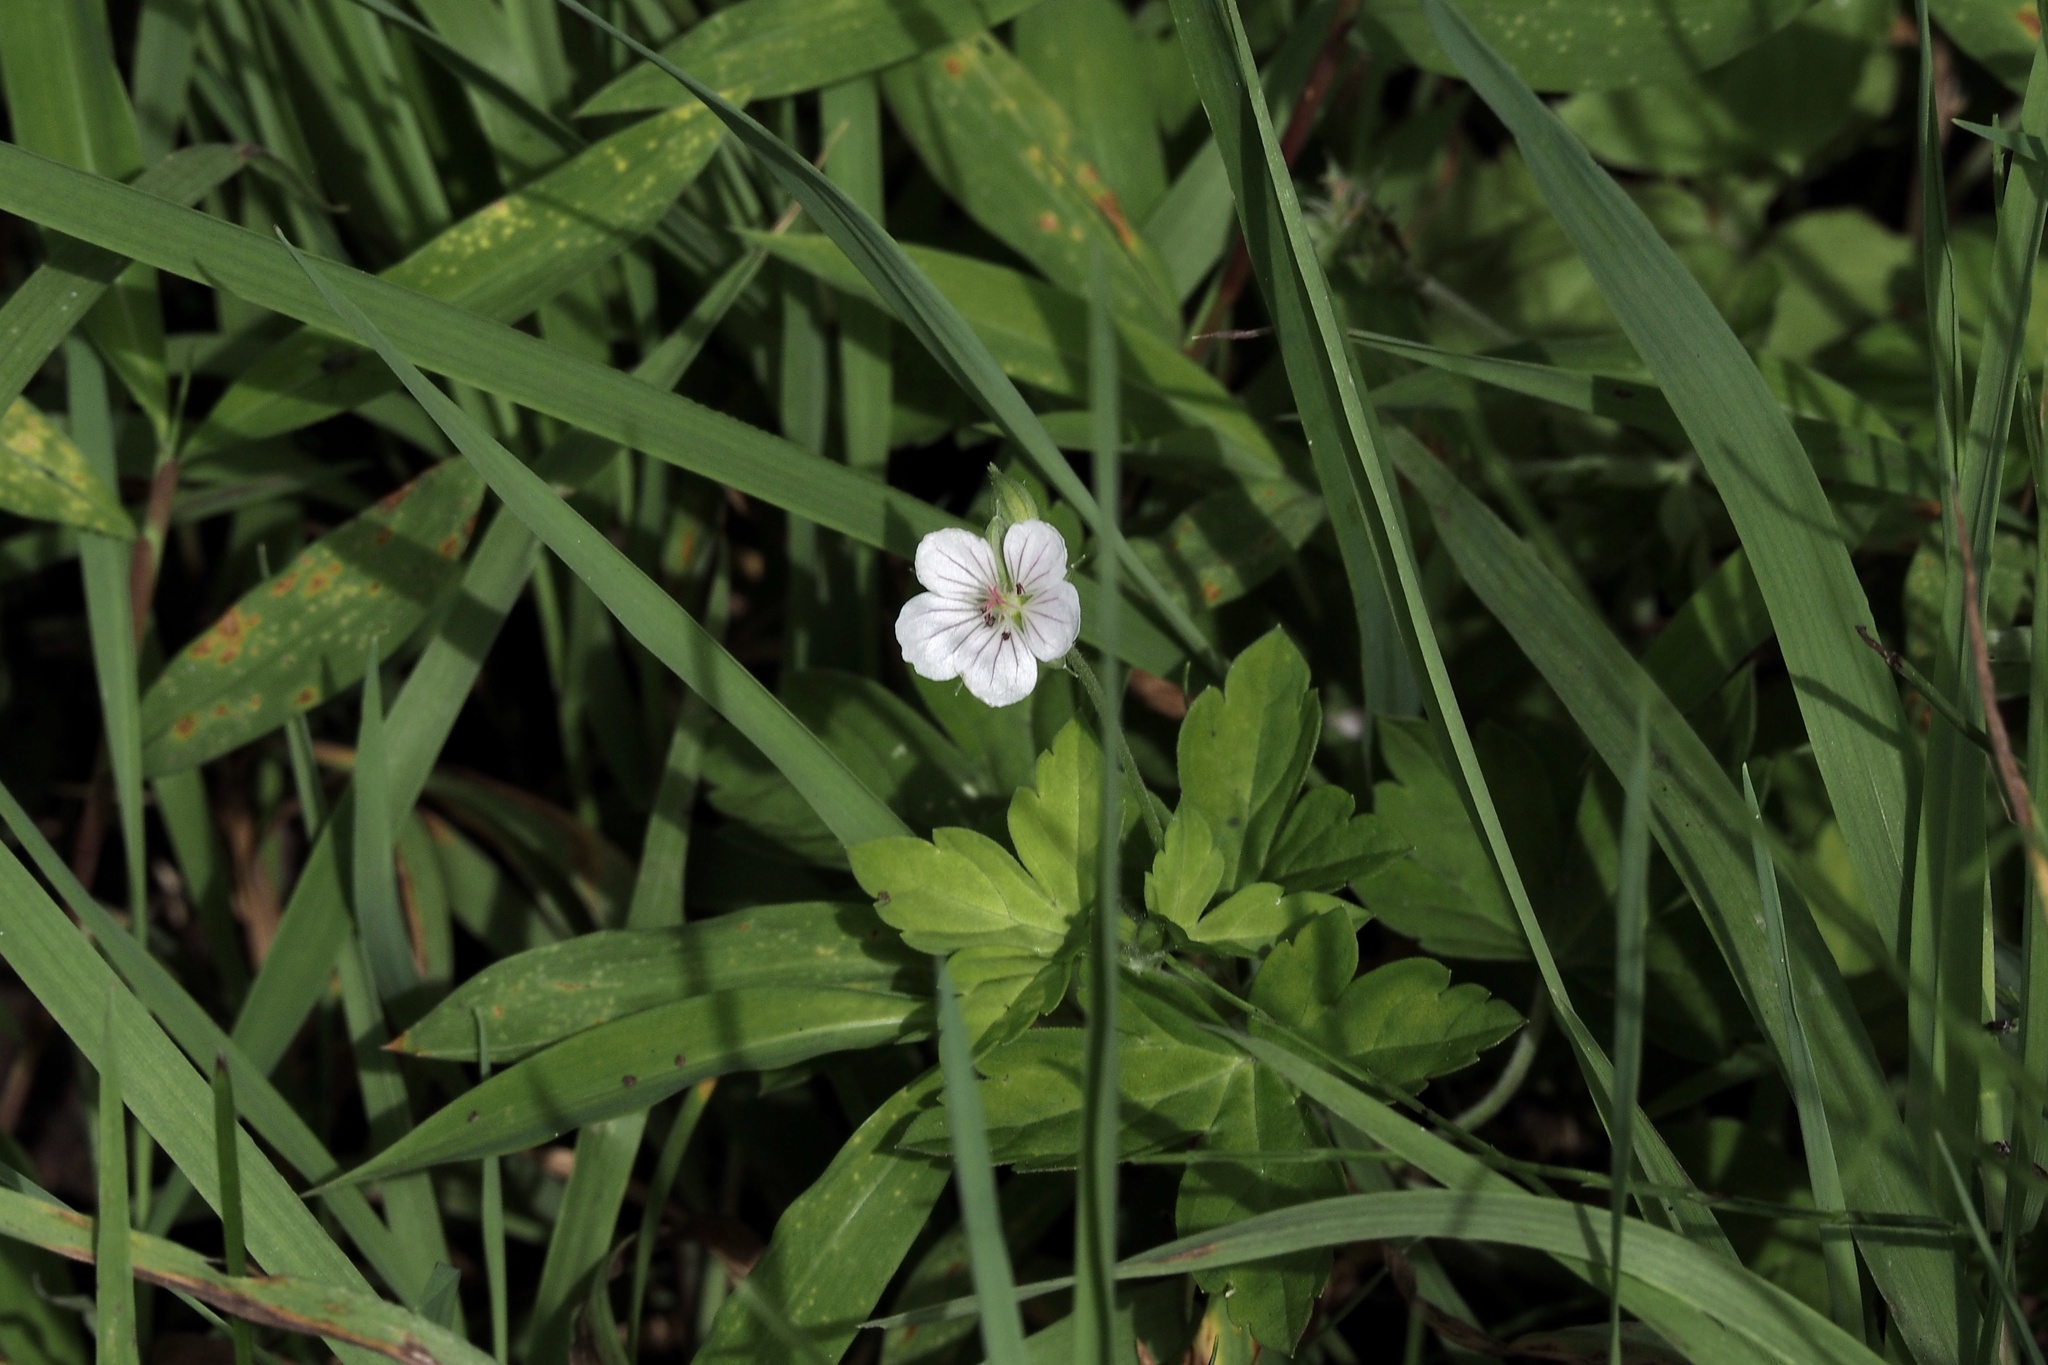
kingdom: Plantae
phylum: Tracheophyta
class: Magnoliopsida
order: Geraniales
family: Geraniaceae
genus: Geranium
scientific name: Geranium thunbergii
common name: Dewdrop crane's-bill
